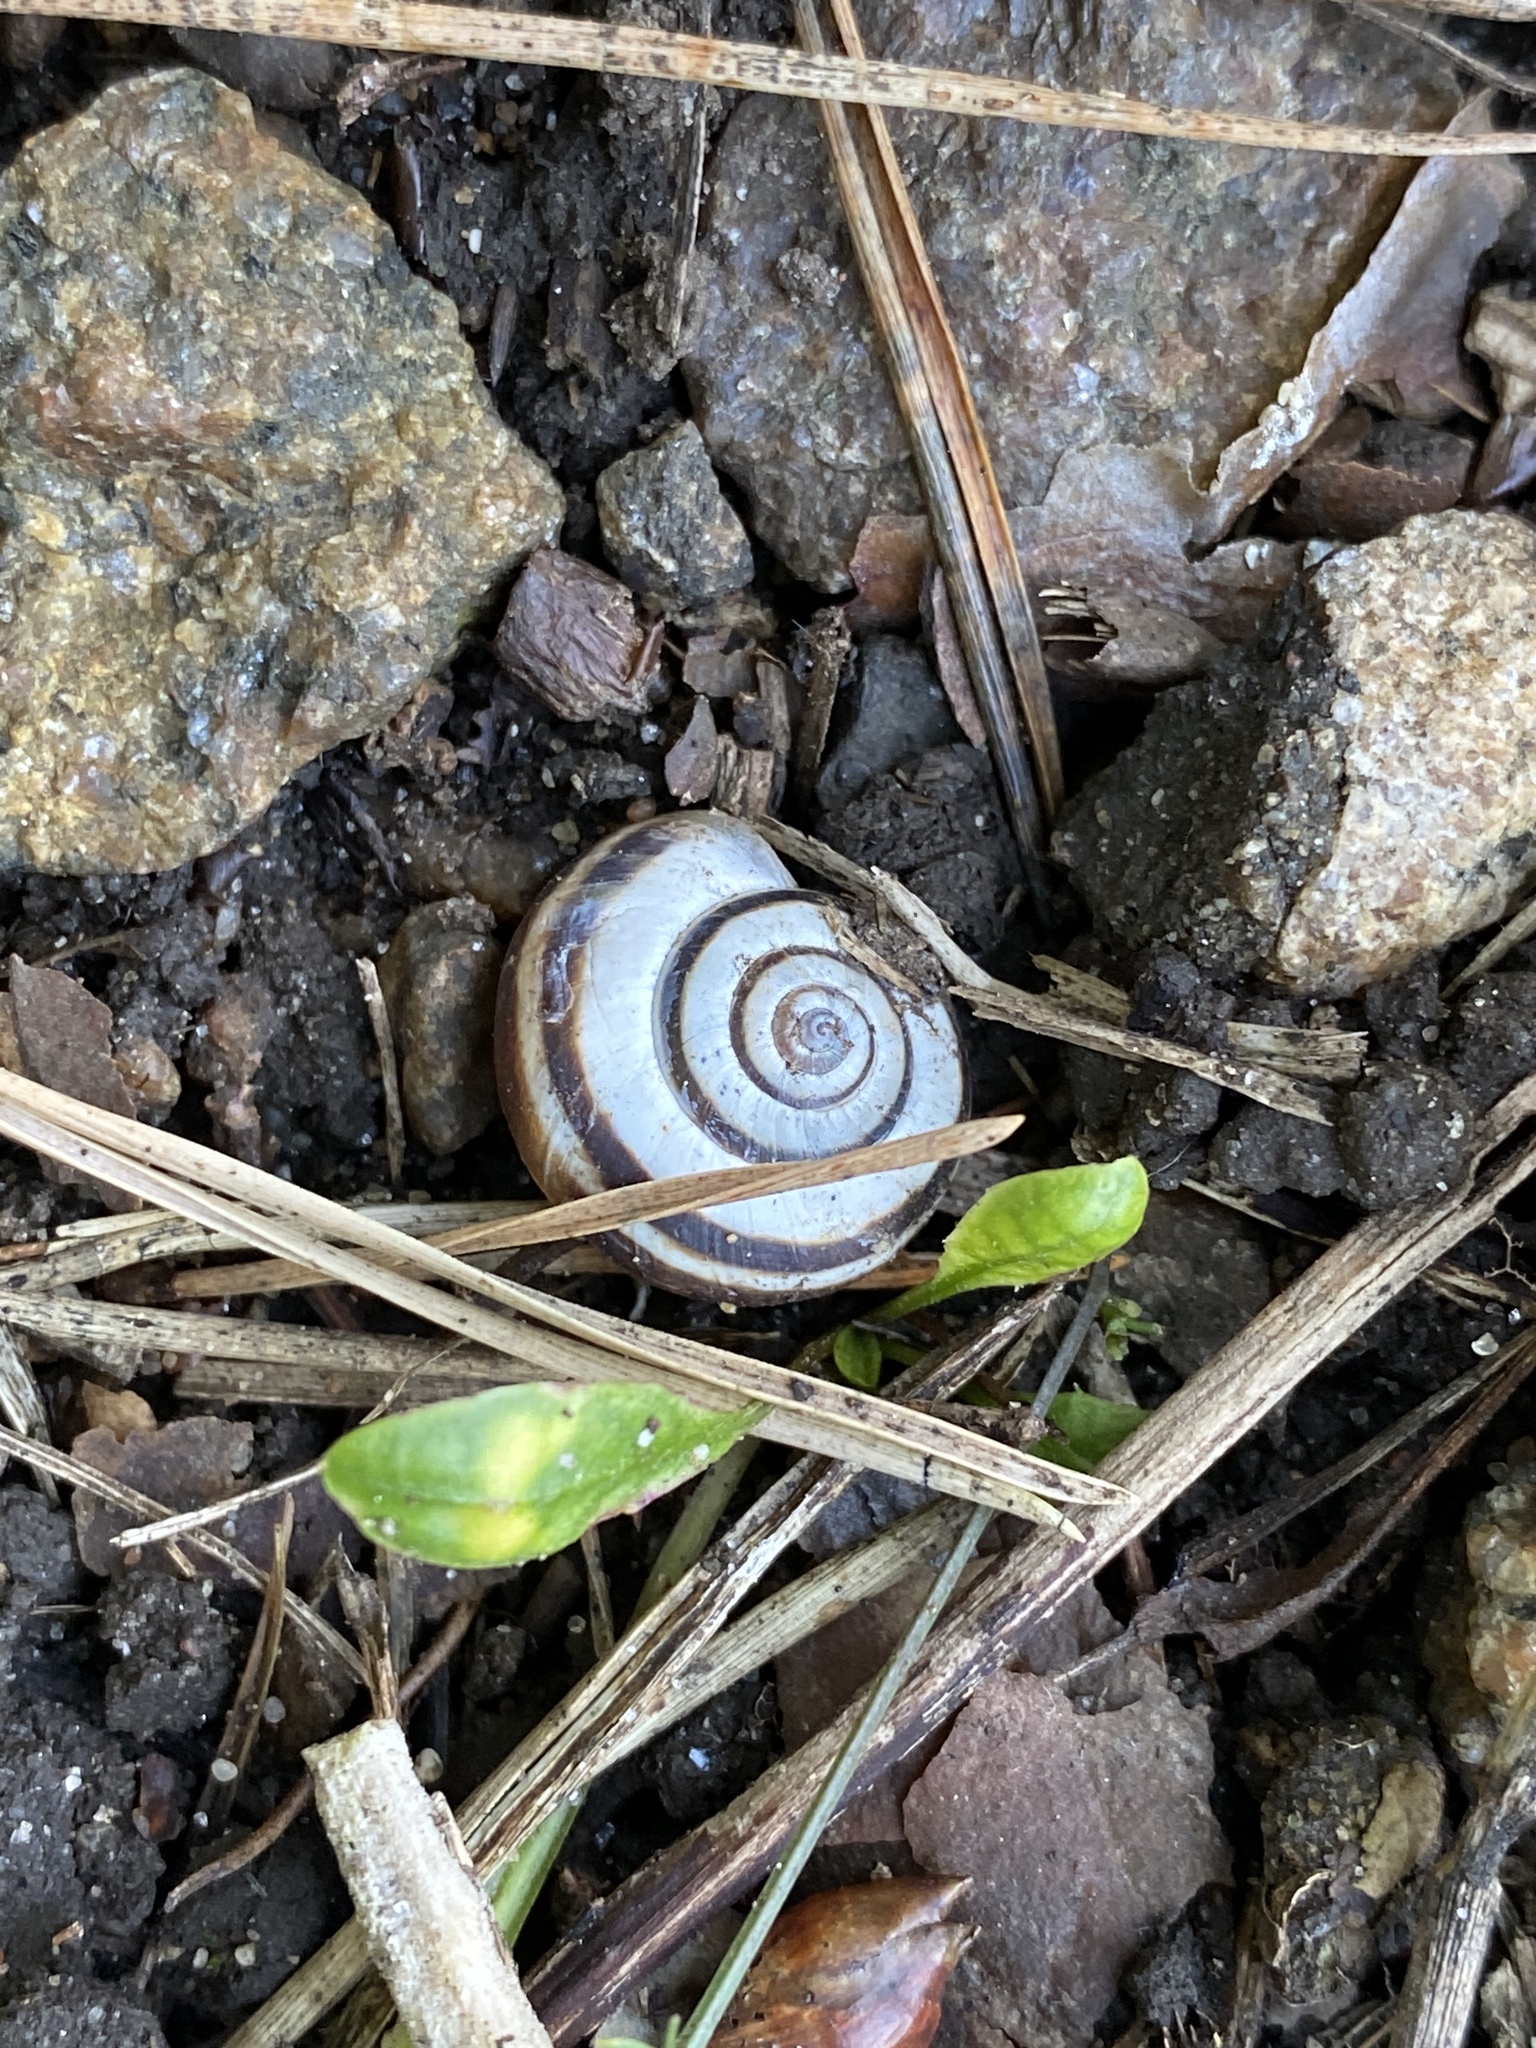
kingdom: Animalia
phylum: Mollusca
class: Gastropoda
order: Stylommatophora
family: Geomitridae
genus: Xerolenta
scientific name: Xerolenta obvia
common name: White heath snail
